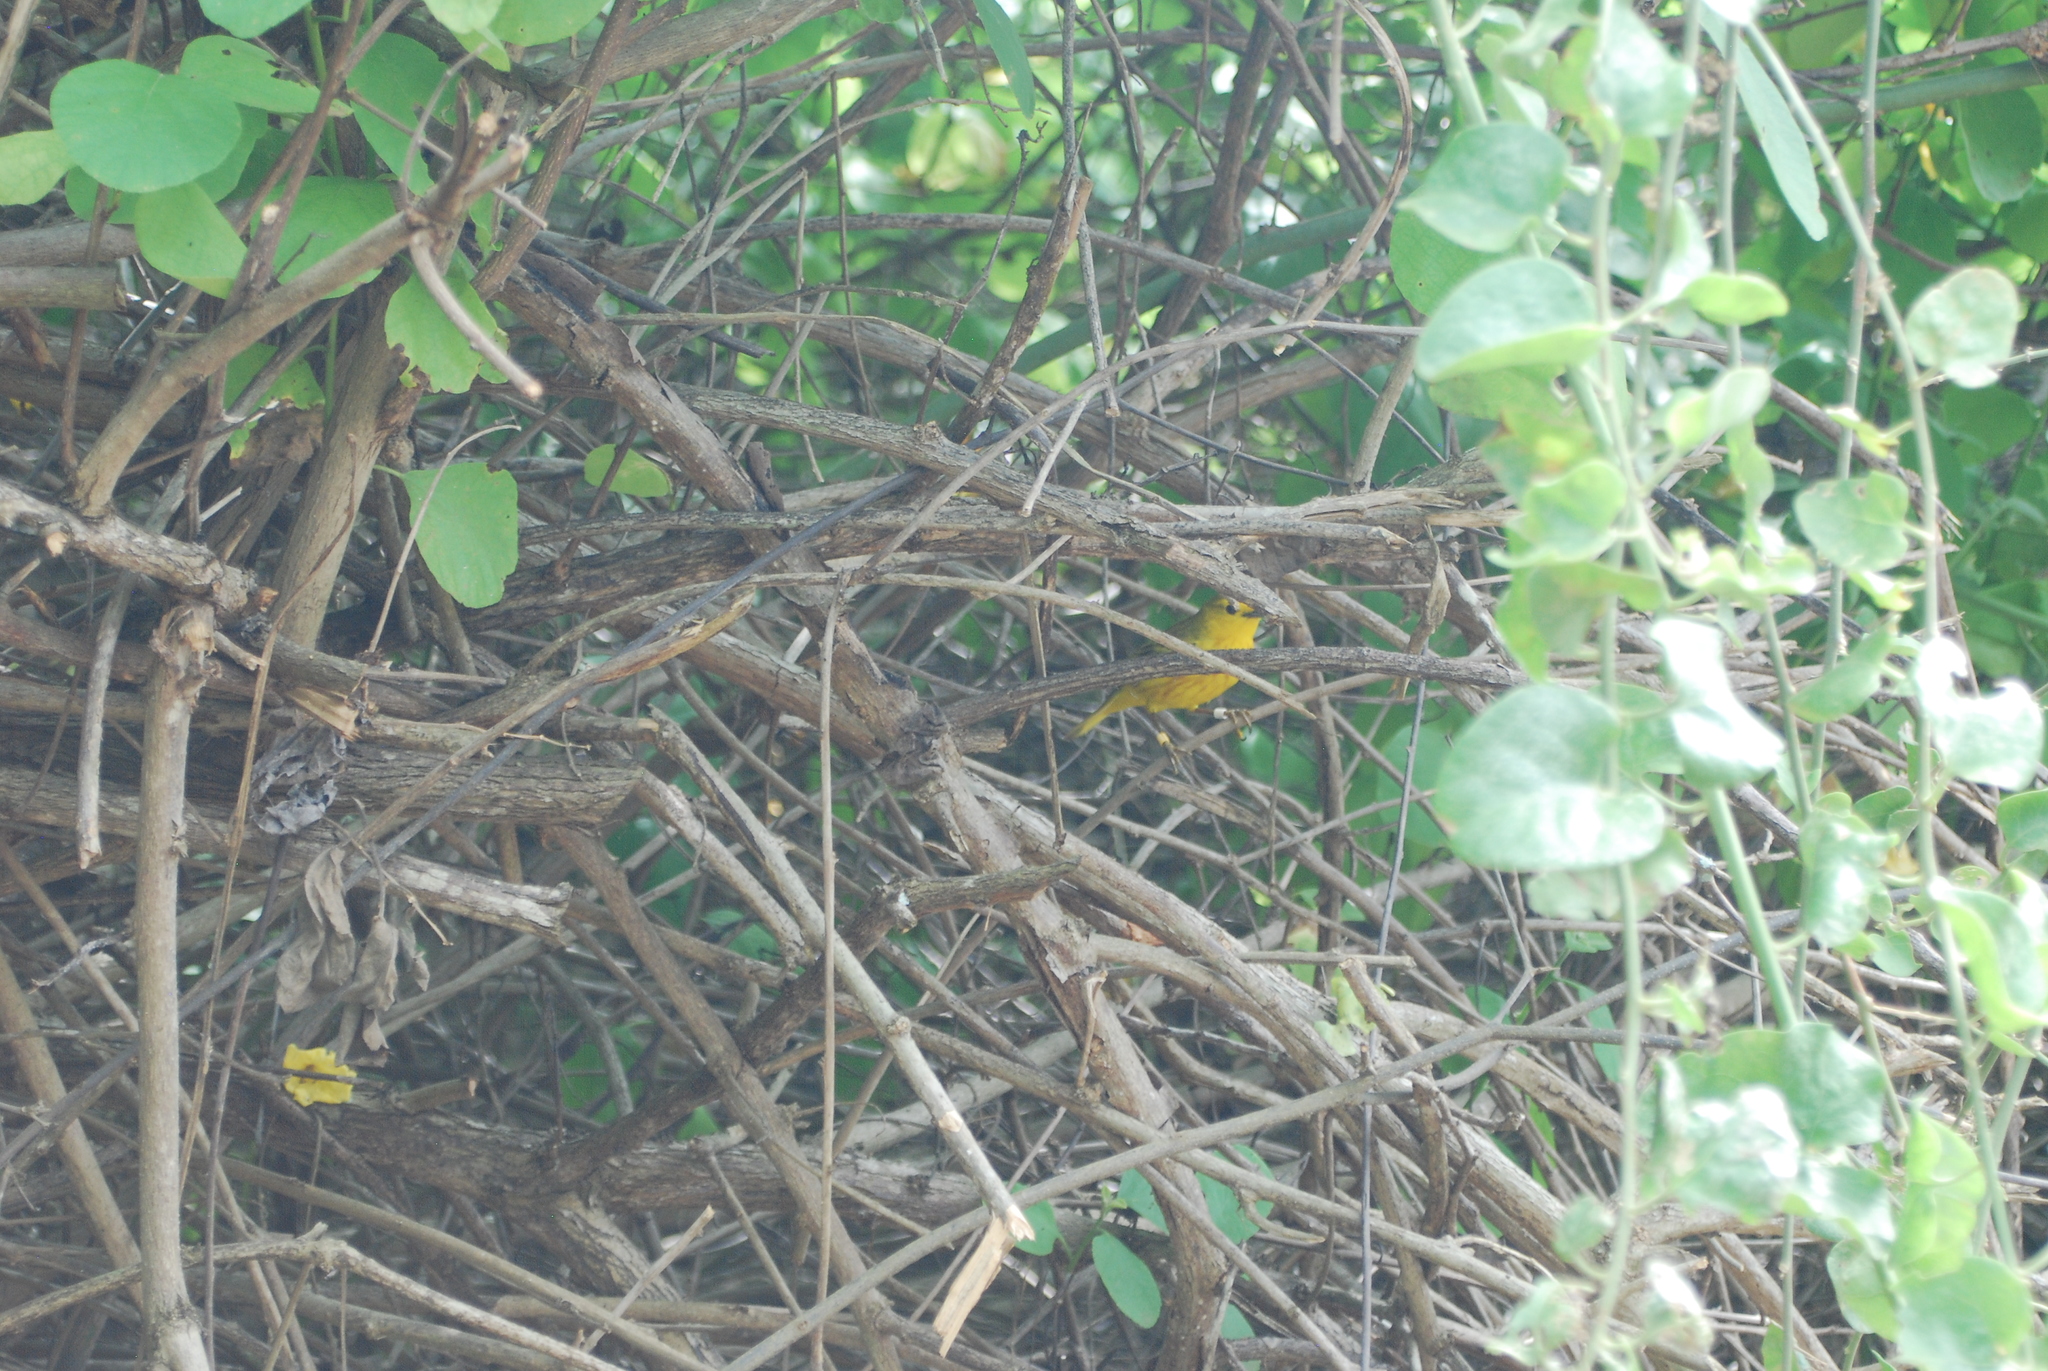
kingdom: Animalia
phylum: Chordata
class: Aves
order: Passeriformes
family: Parulidae
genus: Setophaga
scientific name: Setophaga petechia
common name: Yellow warbler
